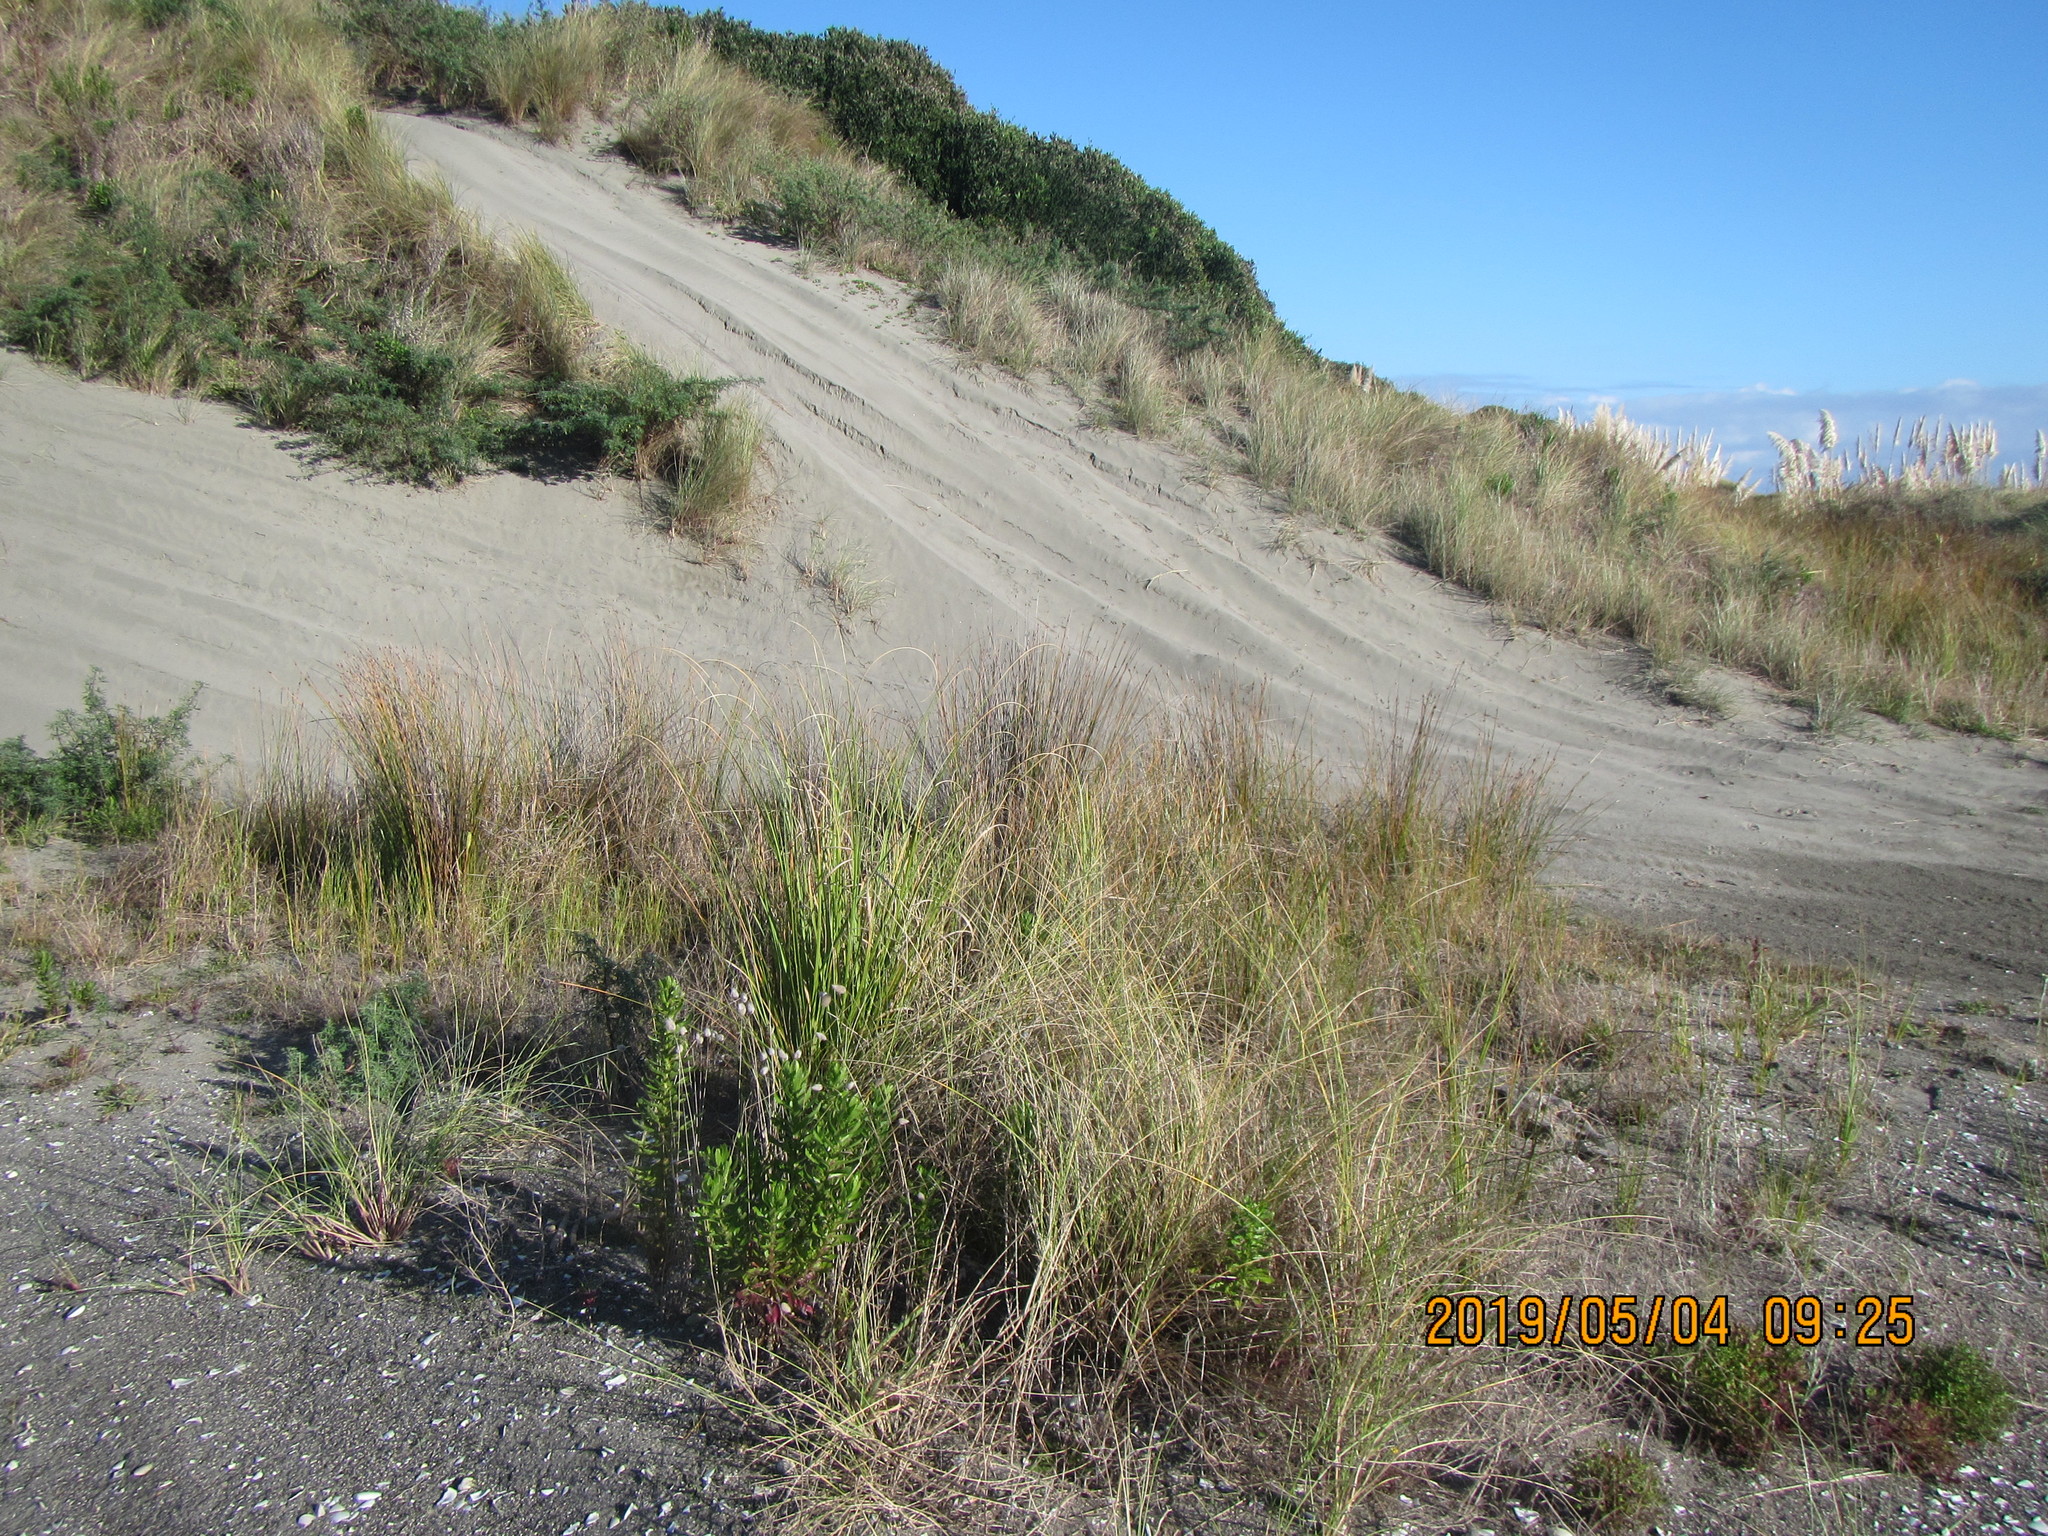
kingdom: Plantae
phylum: Tracheophyta
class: Magnoliopsida
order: Asterales
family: Asteraceae
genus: Senecio
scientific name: Senecio glastifolius
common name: Woad-leaved ragwort
